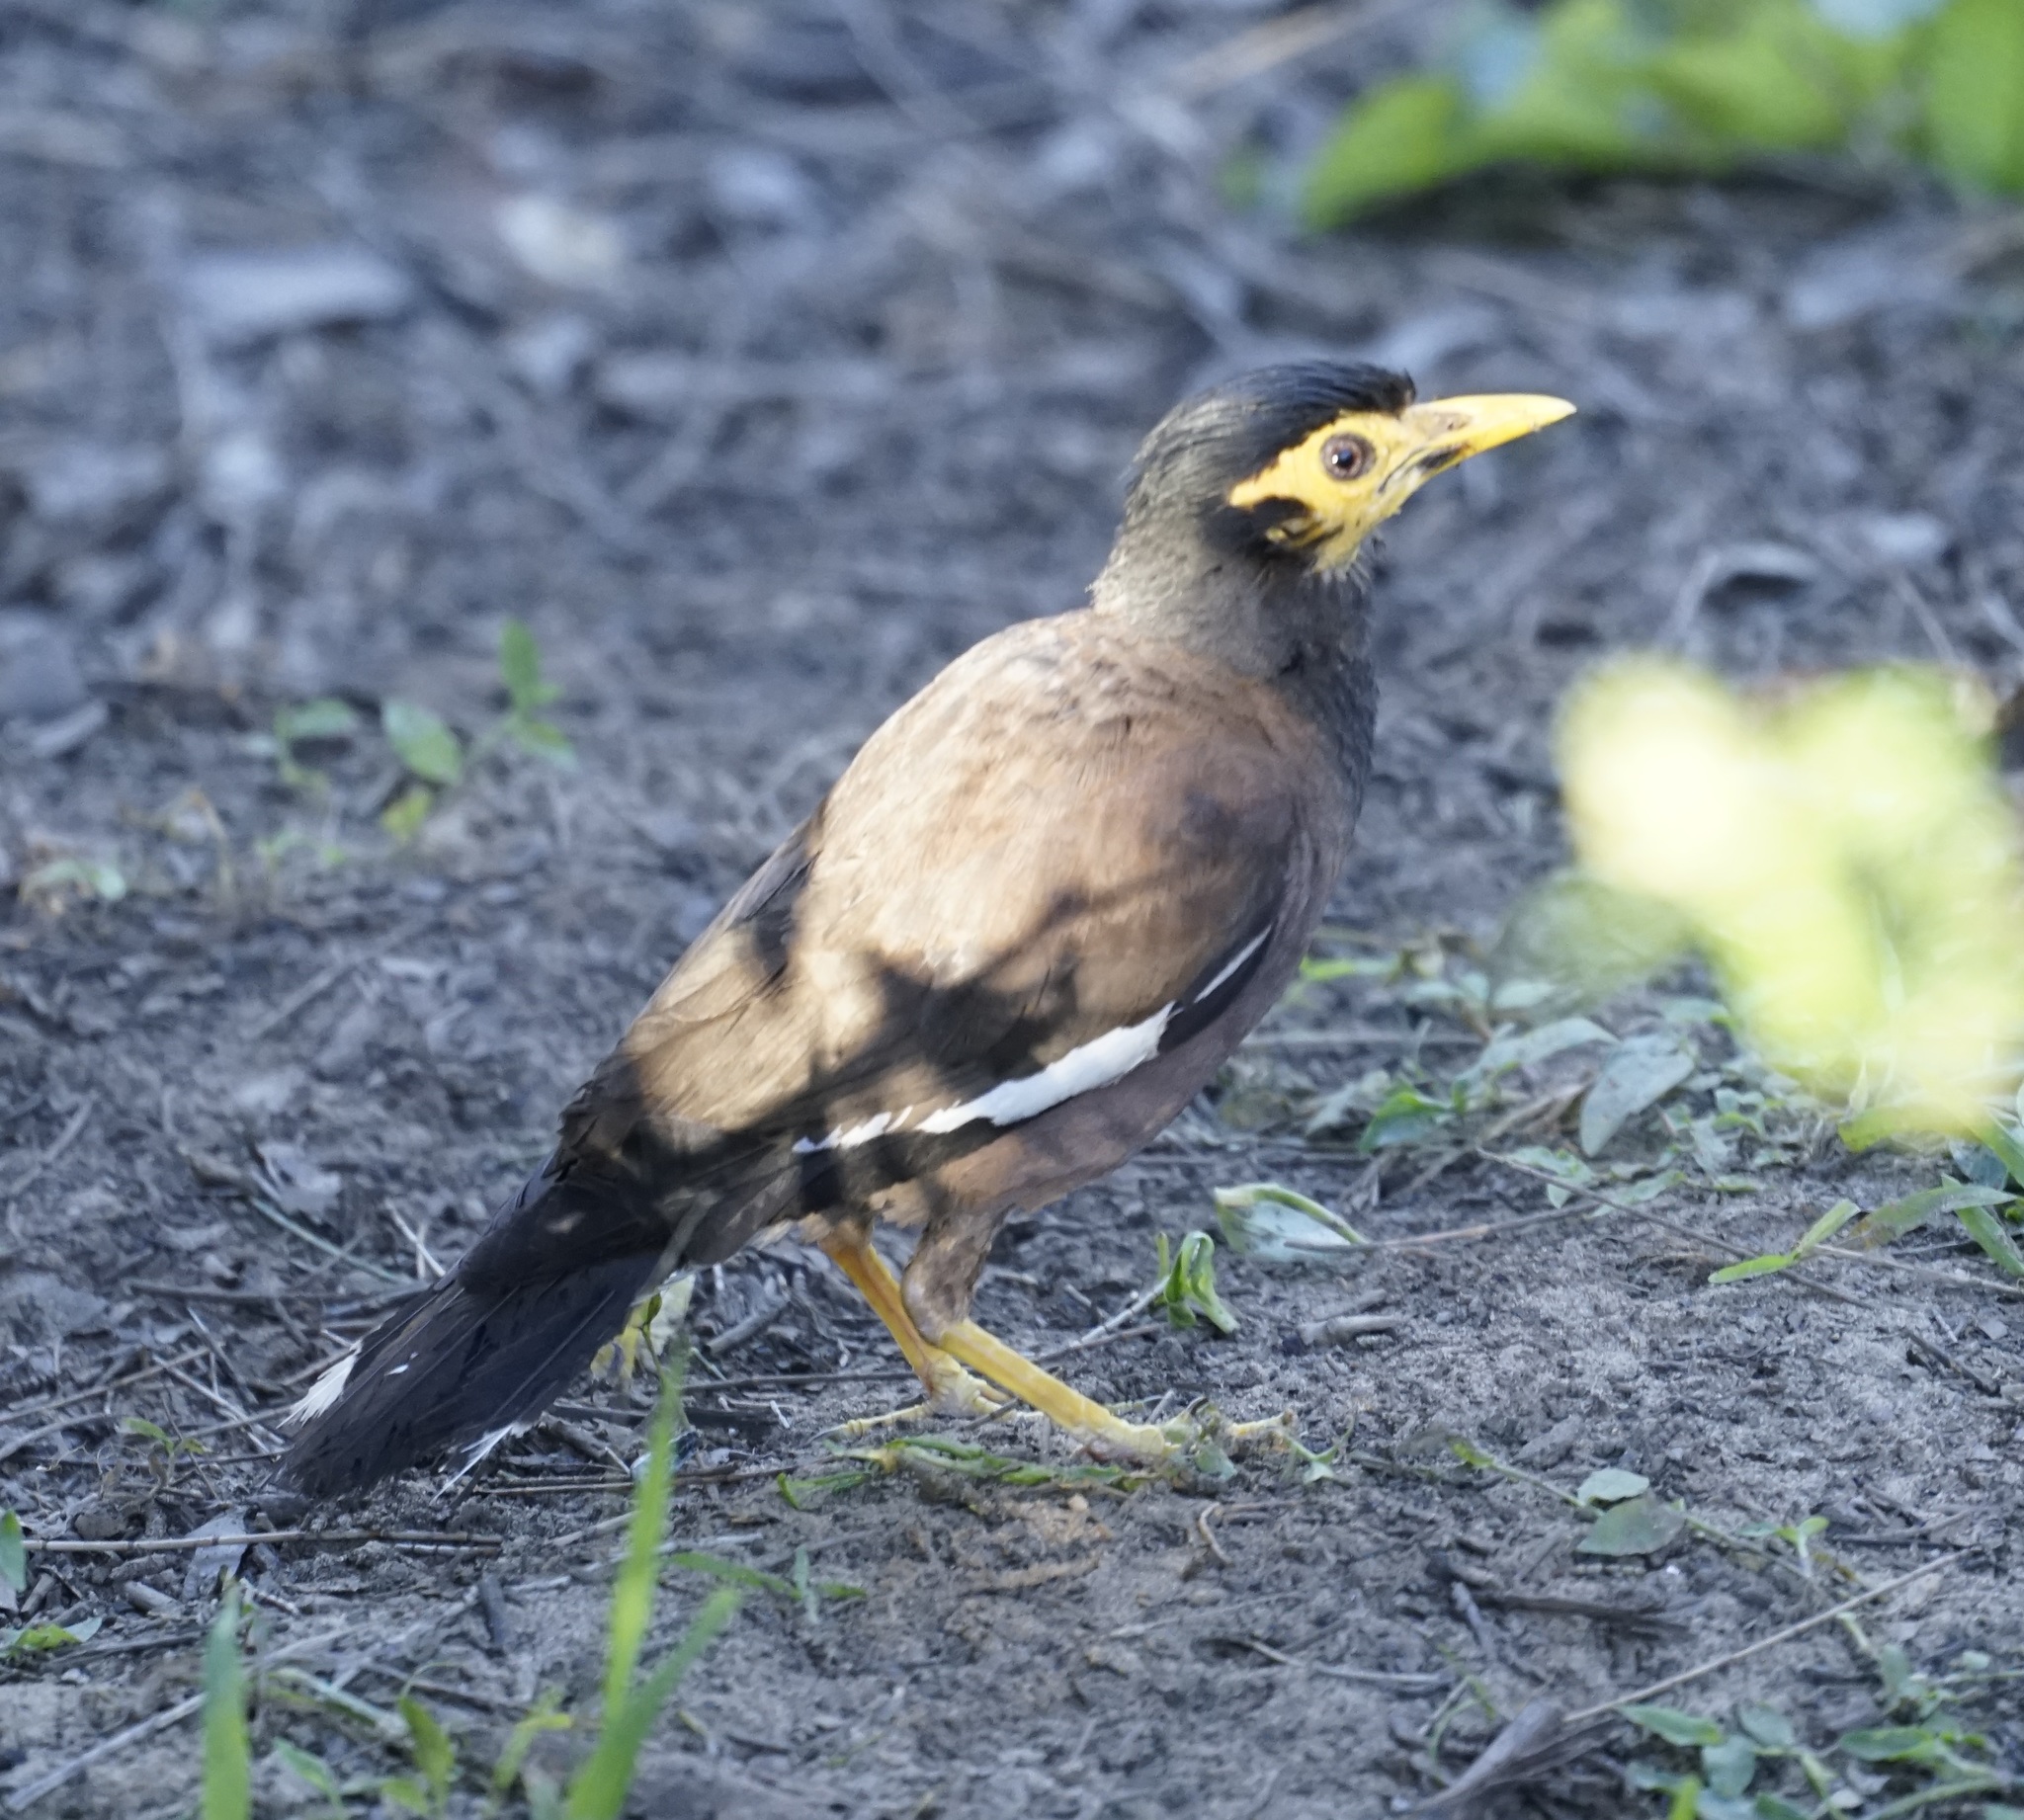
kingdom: Animalia
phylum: Chordata
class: Aves
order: Passeriformes
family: Sturnidae
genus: Acridotheres
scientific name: Acridotheres tristis
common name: Common myna
